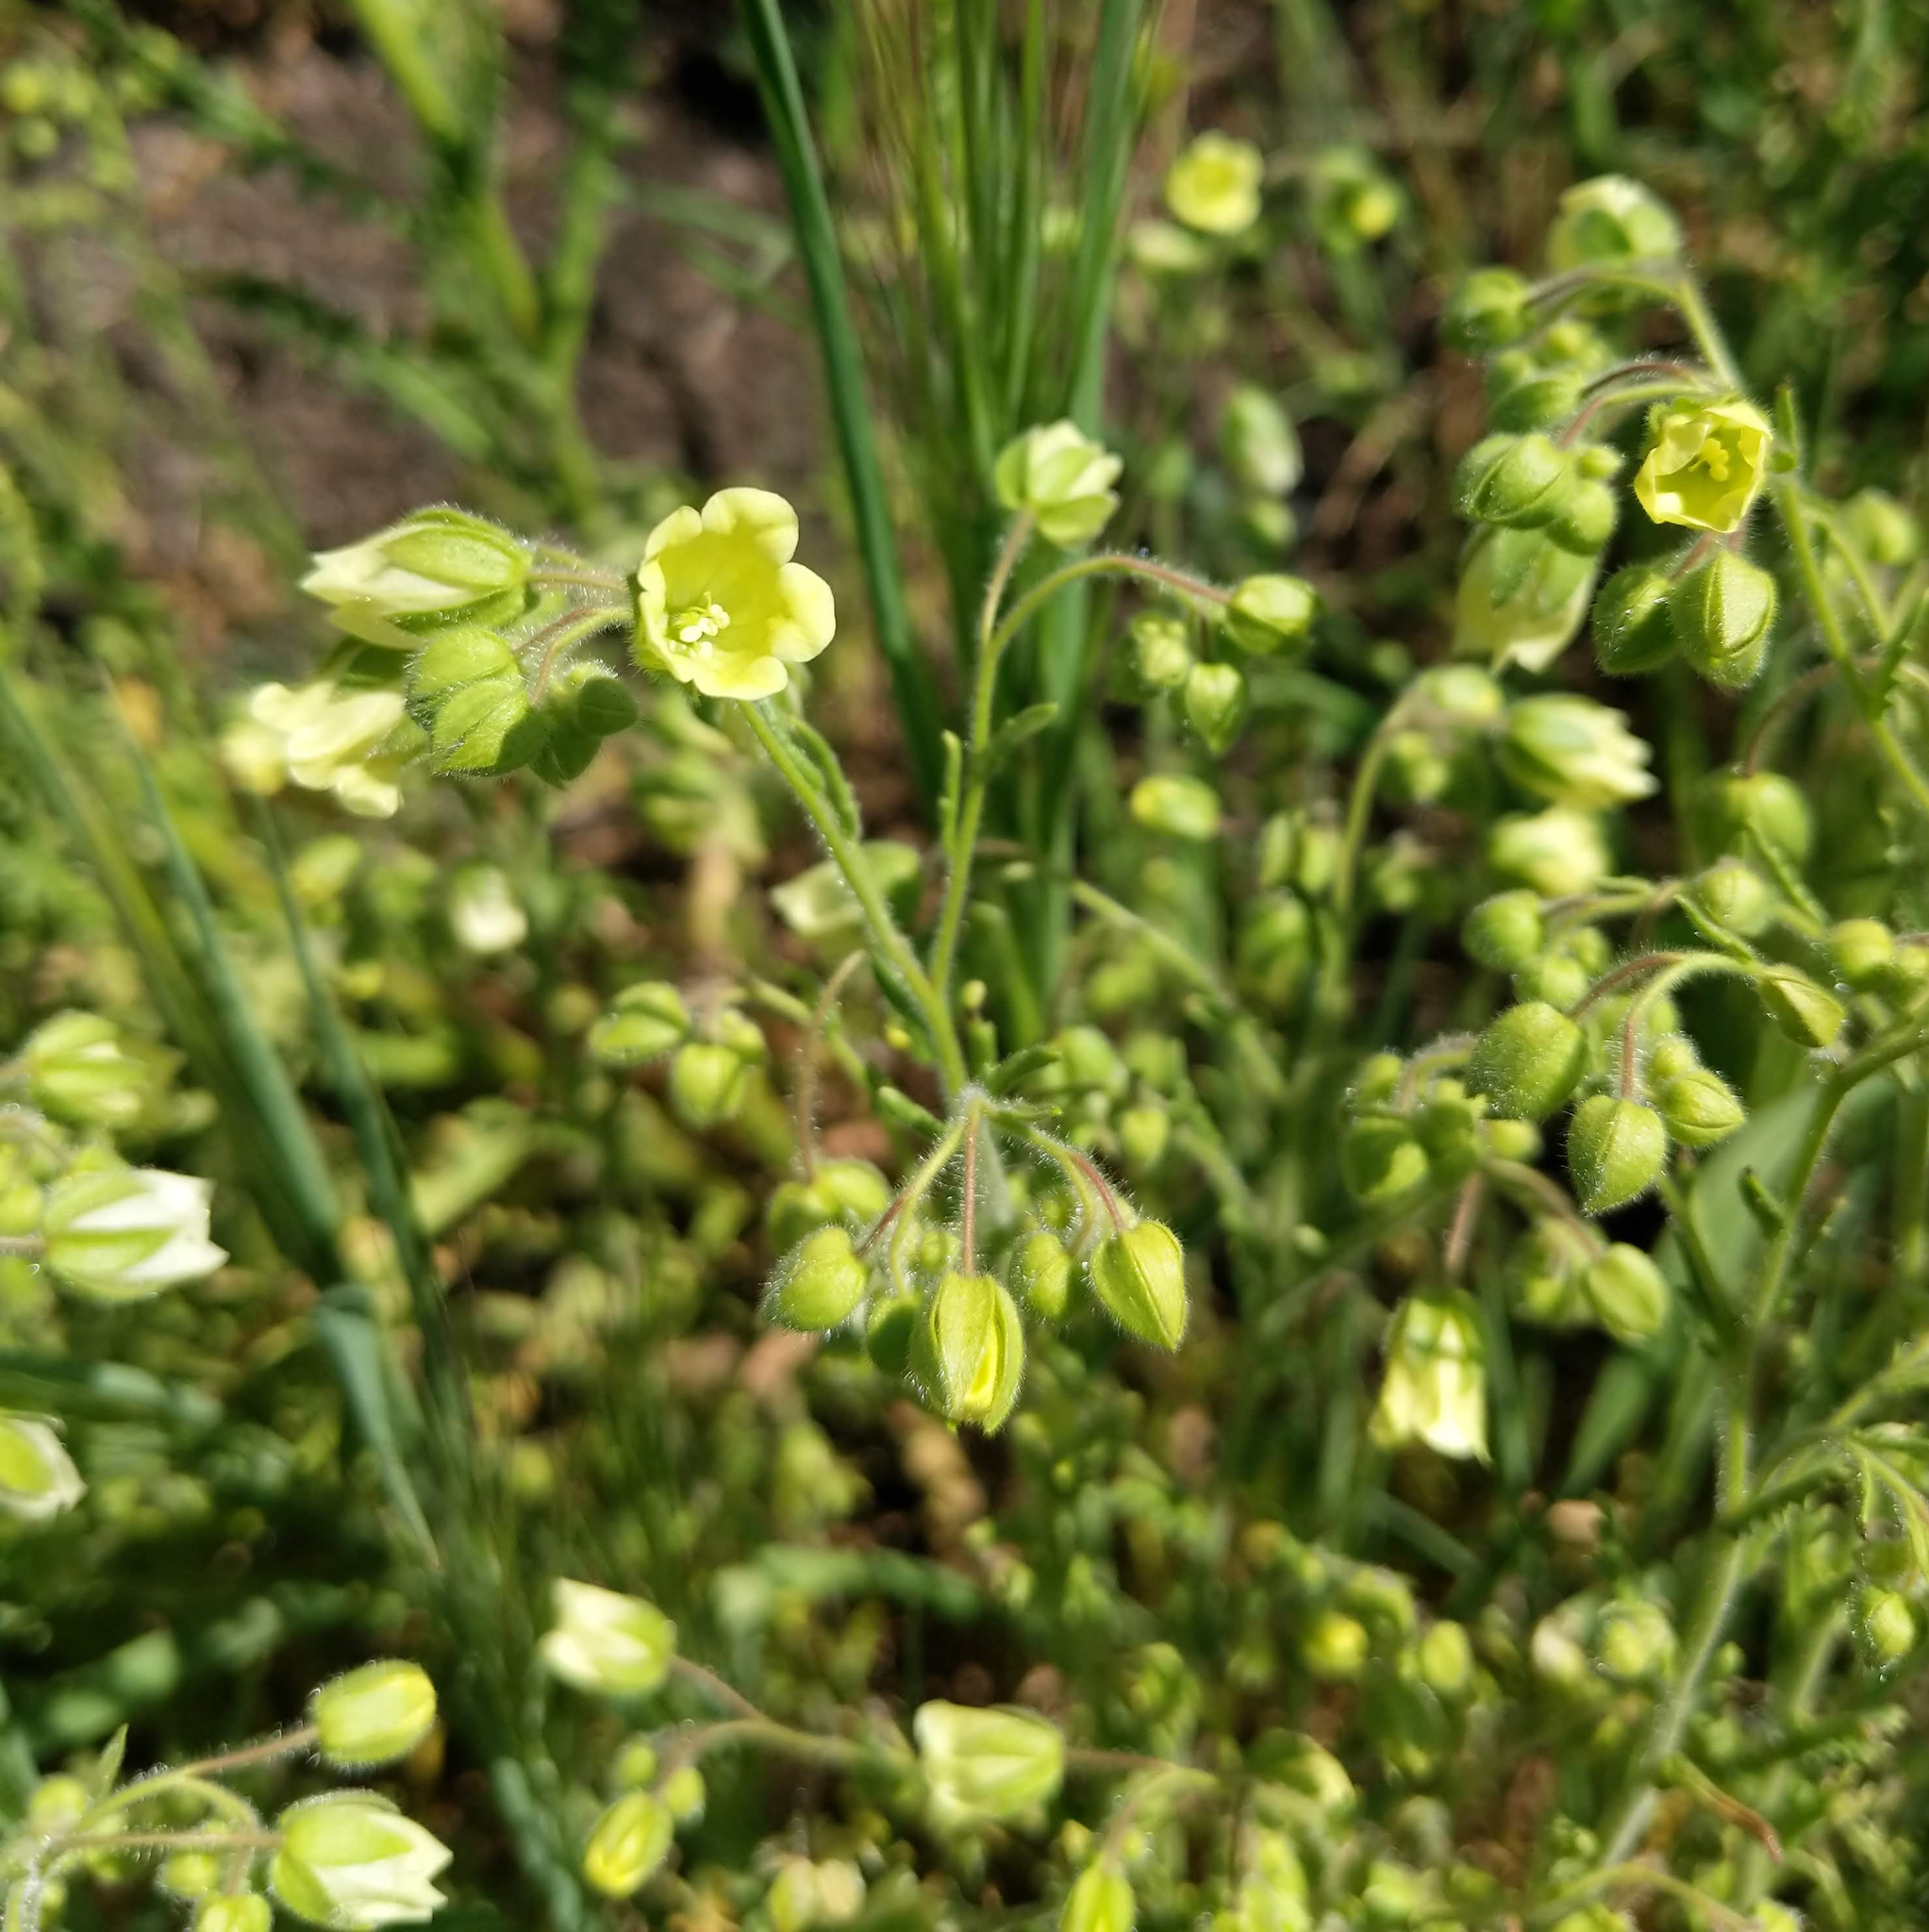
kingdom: Plantae
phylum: Tracheophyta
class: Magnoliopsida
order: Boraginales
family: Hydrophyllaceae
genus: Emmenanthe
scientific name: Emmenanthe penduliflora
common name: Whispering-bells
